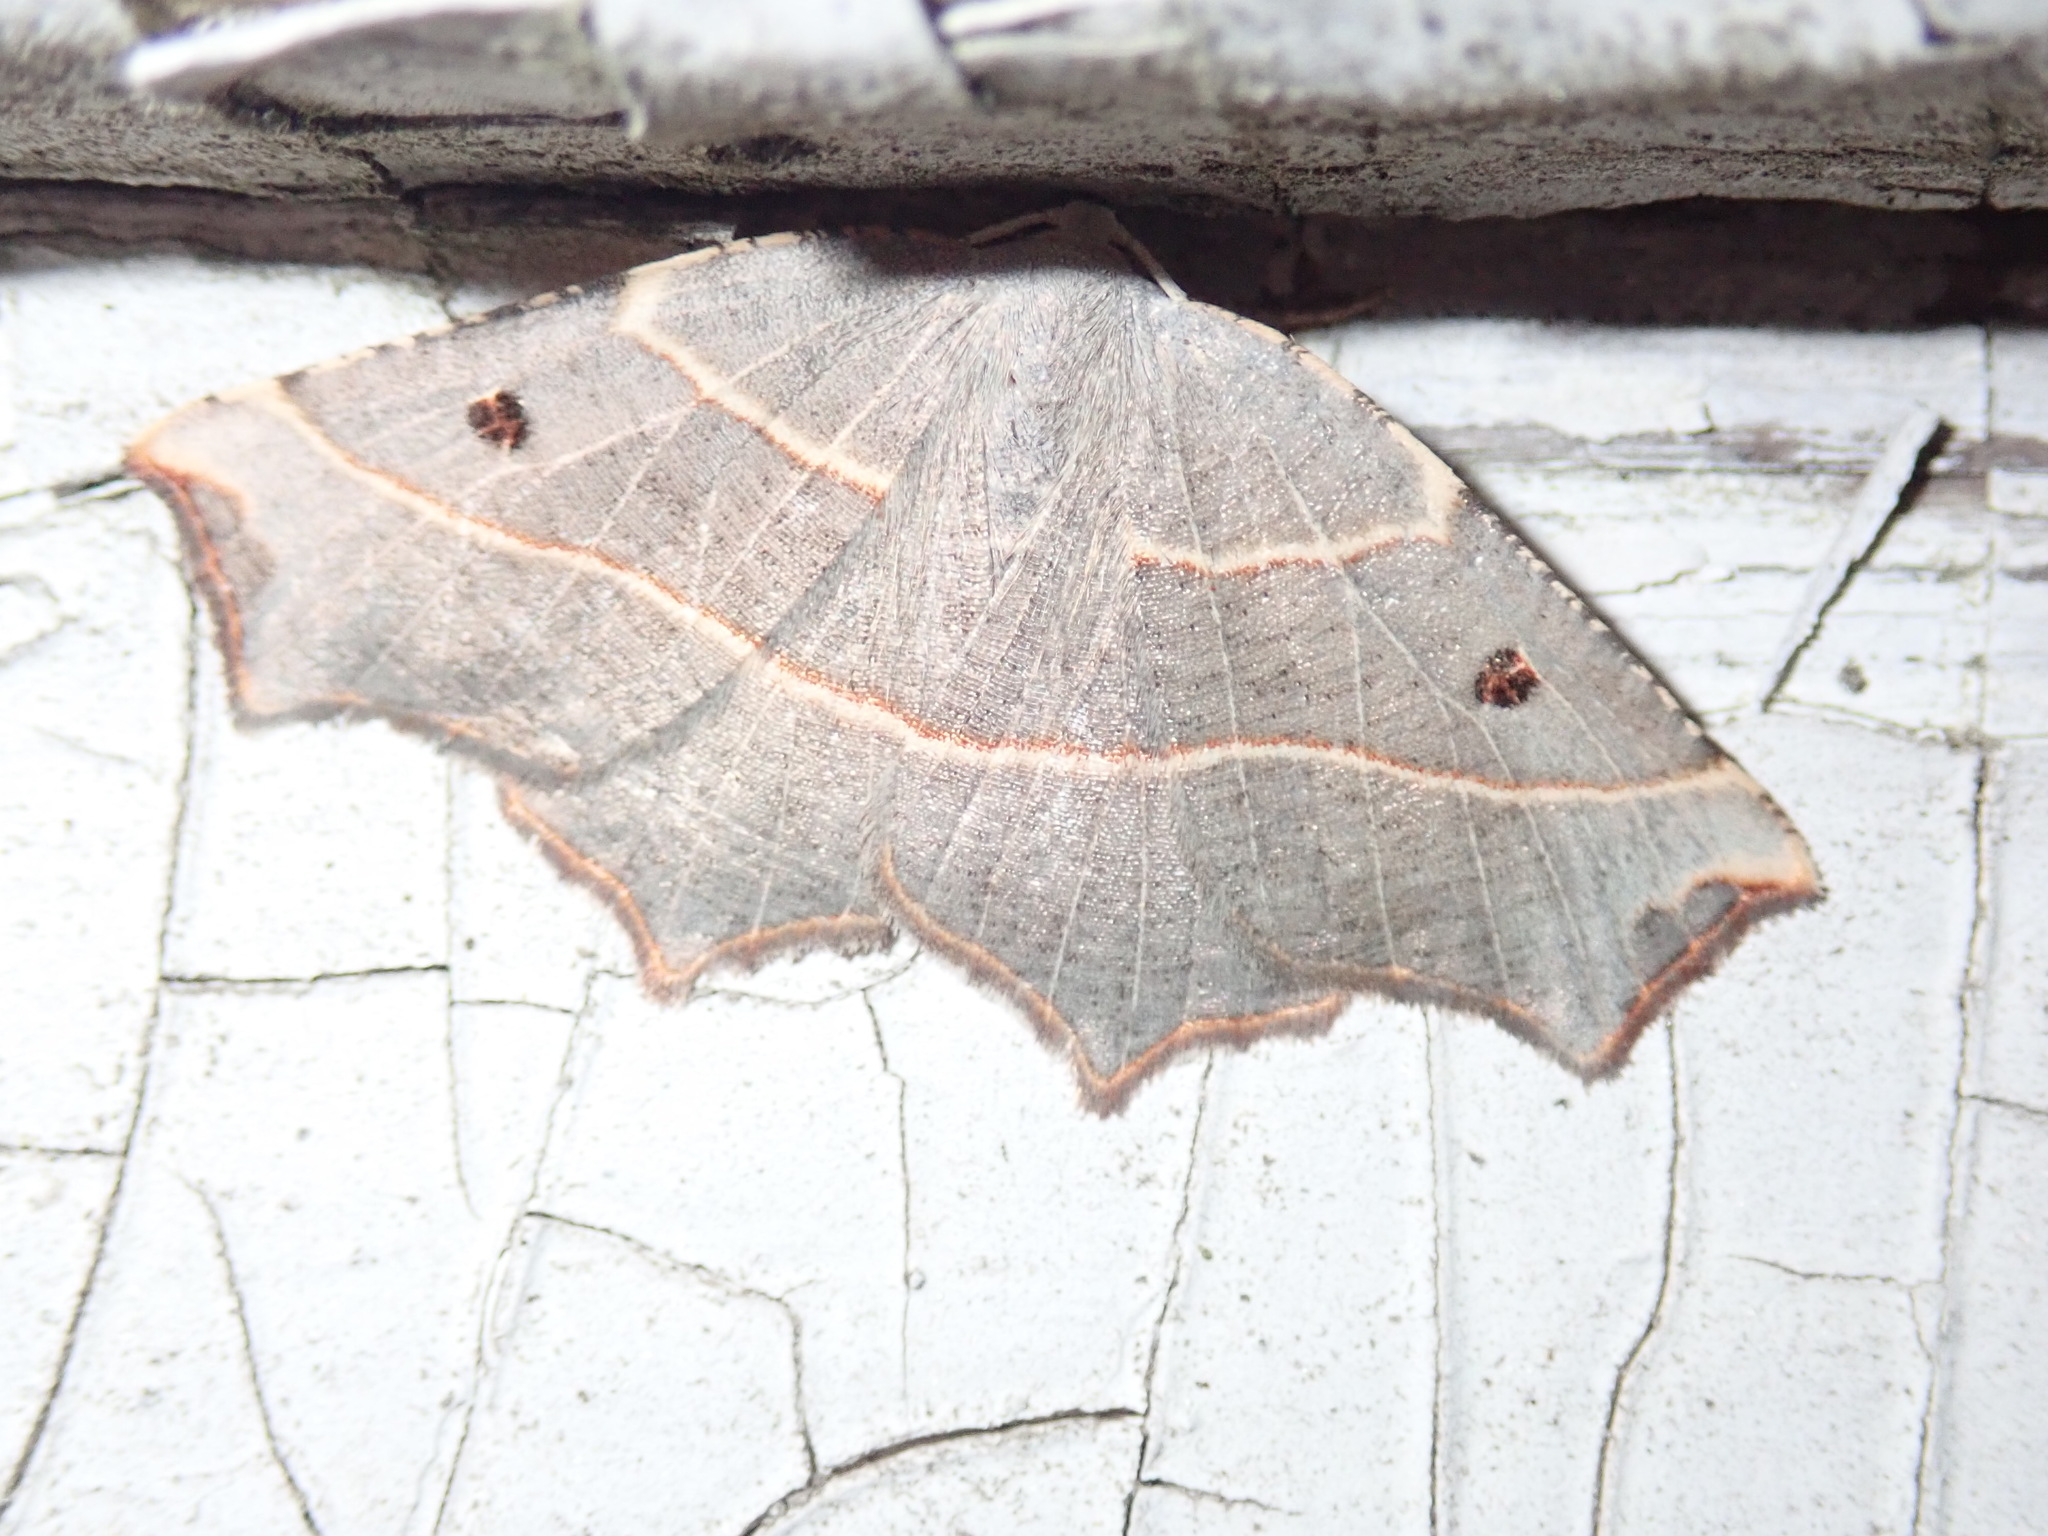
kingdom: Animalia
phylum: Arthropoda
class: Insecta
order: Lepidoptera
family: Geometridae
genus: Metanema
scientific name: Metanema inatomaria
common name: Pale metanema
